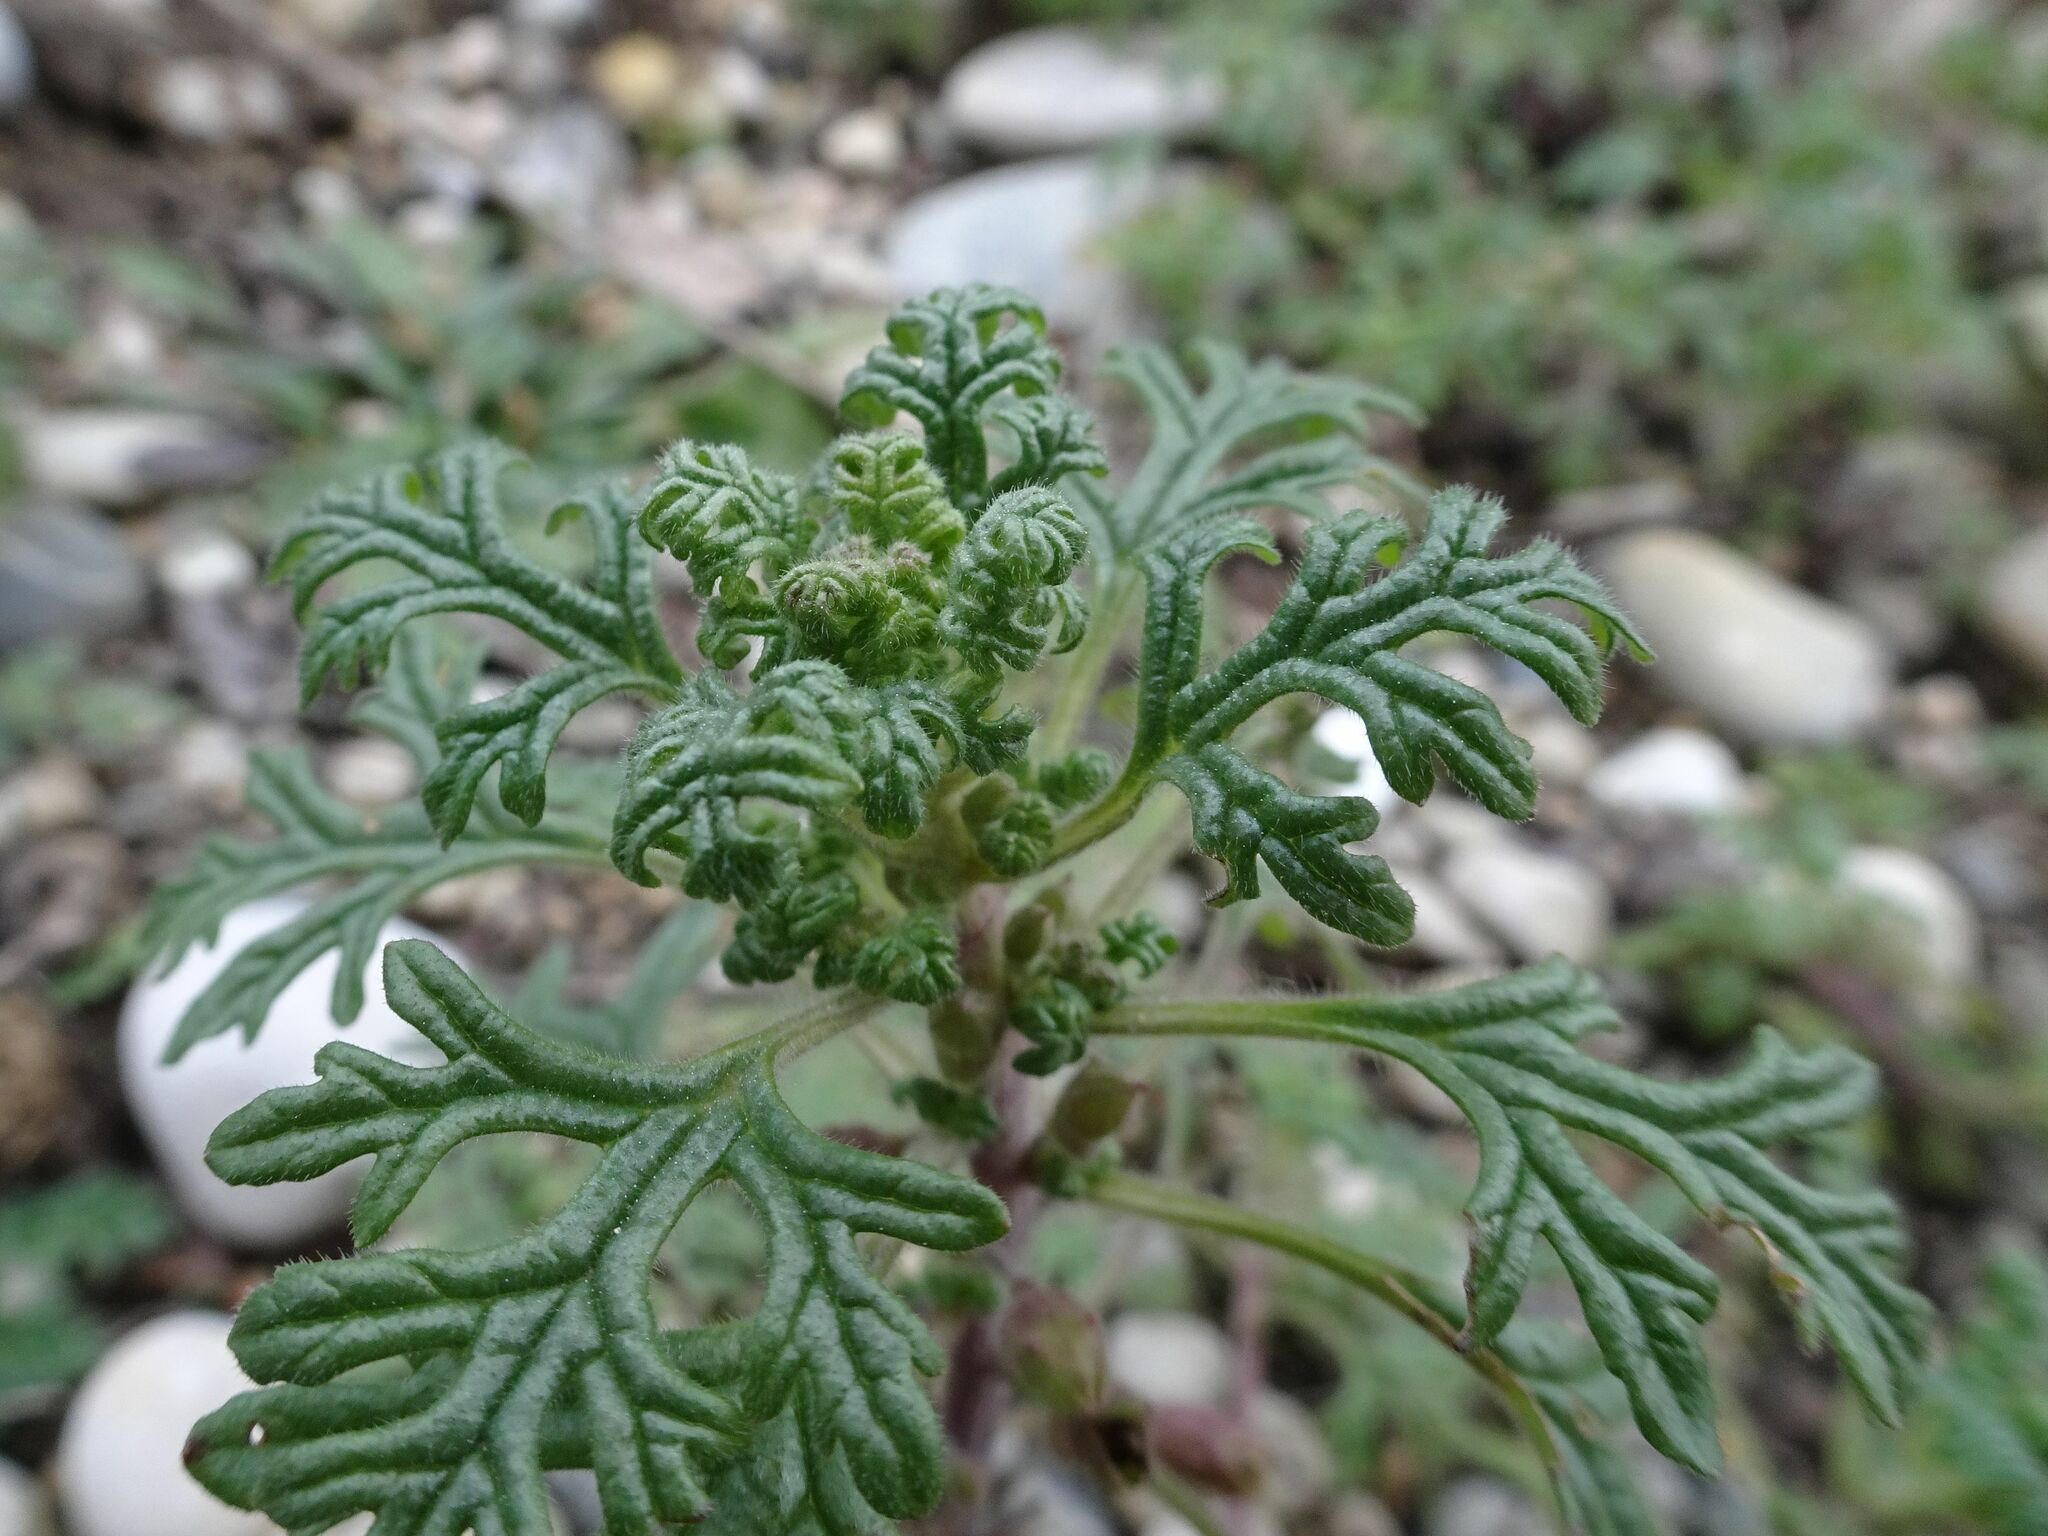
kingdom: Plantae
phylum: Tracheophyta
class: Magnoliopsida
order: Lamiales
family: Lamiaceae
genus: Teucrium
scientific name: Teucrium botrys
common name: Cut-leaved germander
